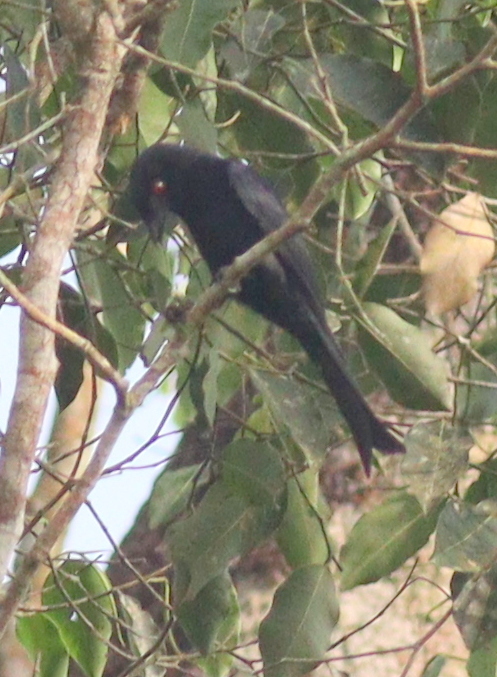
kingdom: Animalia
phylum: Chordata
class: Aves
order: Passeriformes
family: Dicruridae
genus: Dicrurus
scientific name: Dicrurus modestus
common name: Velvet-mantled drongo
